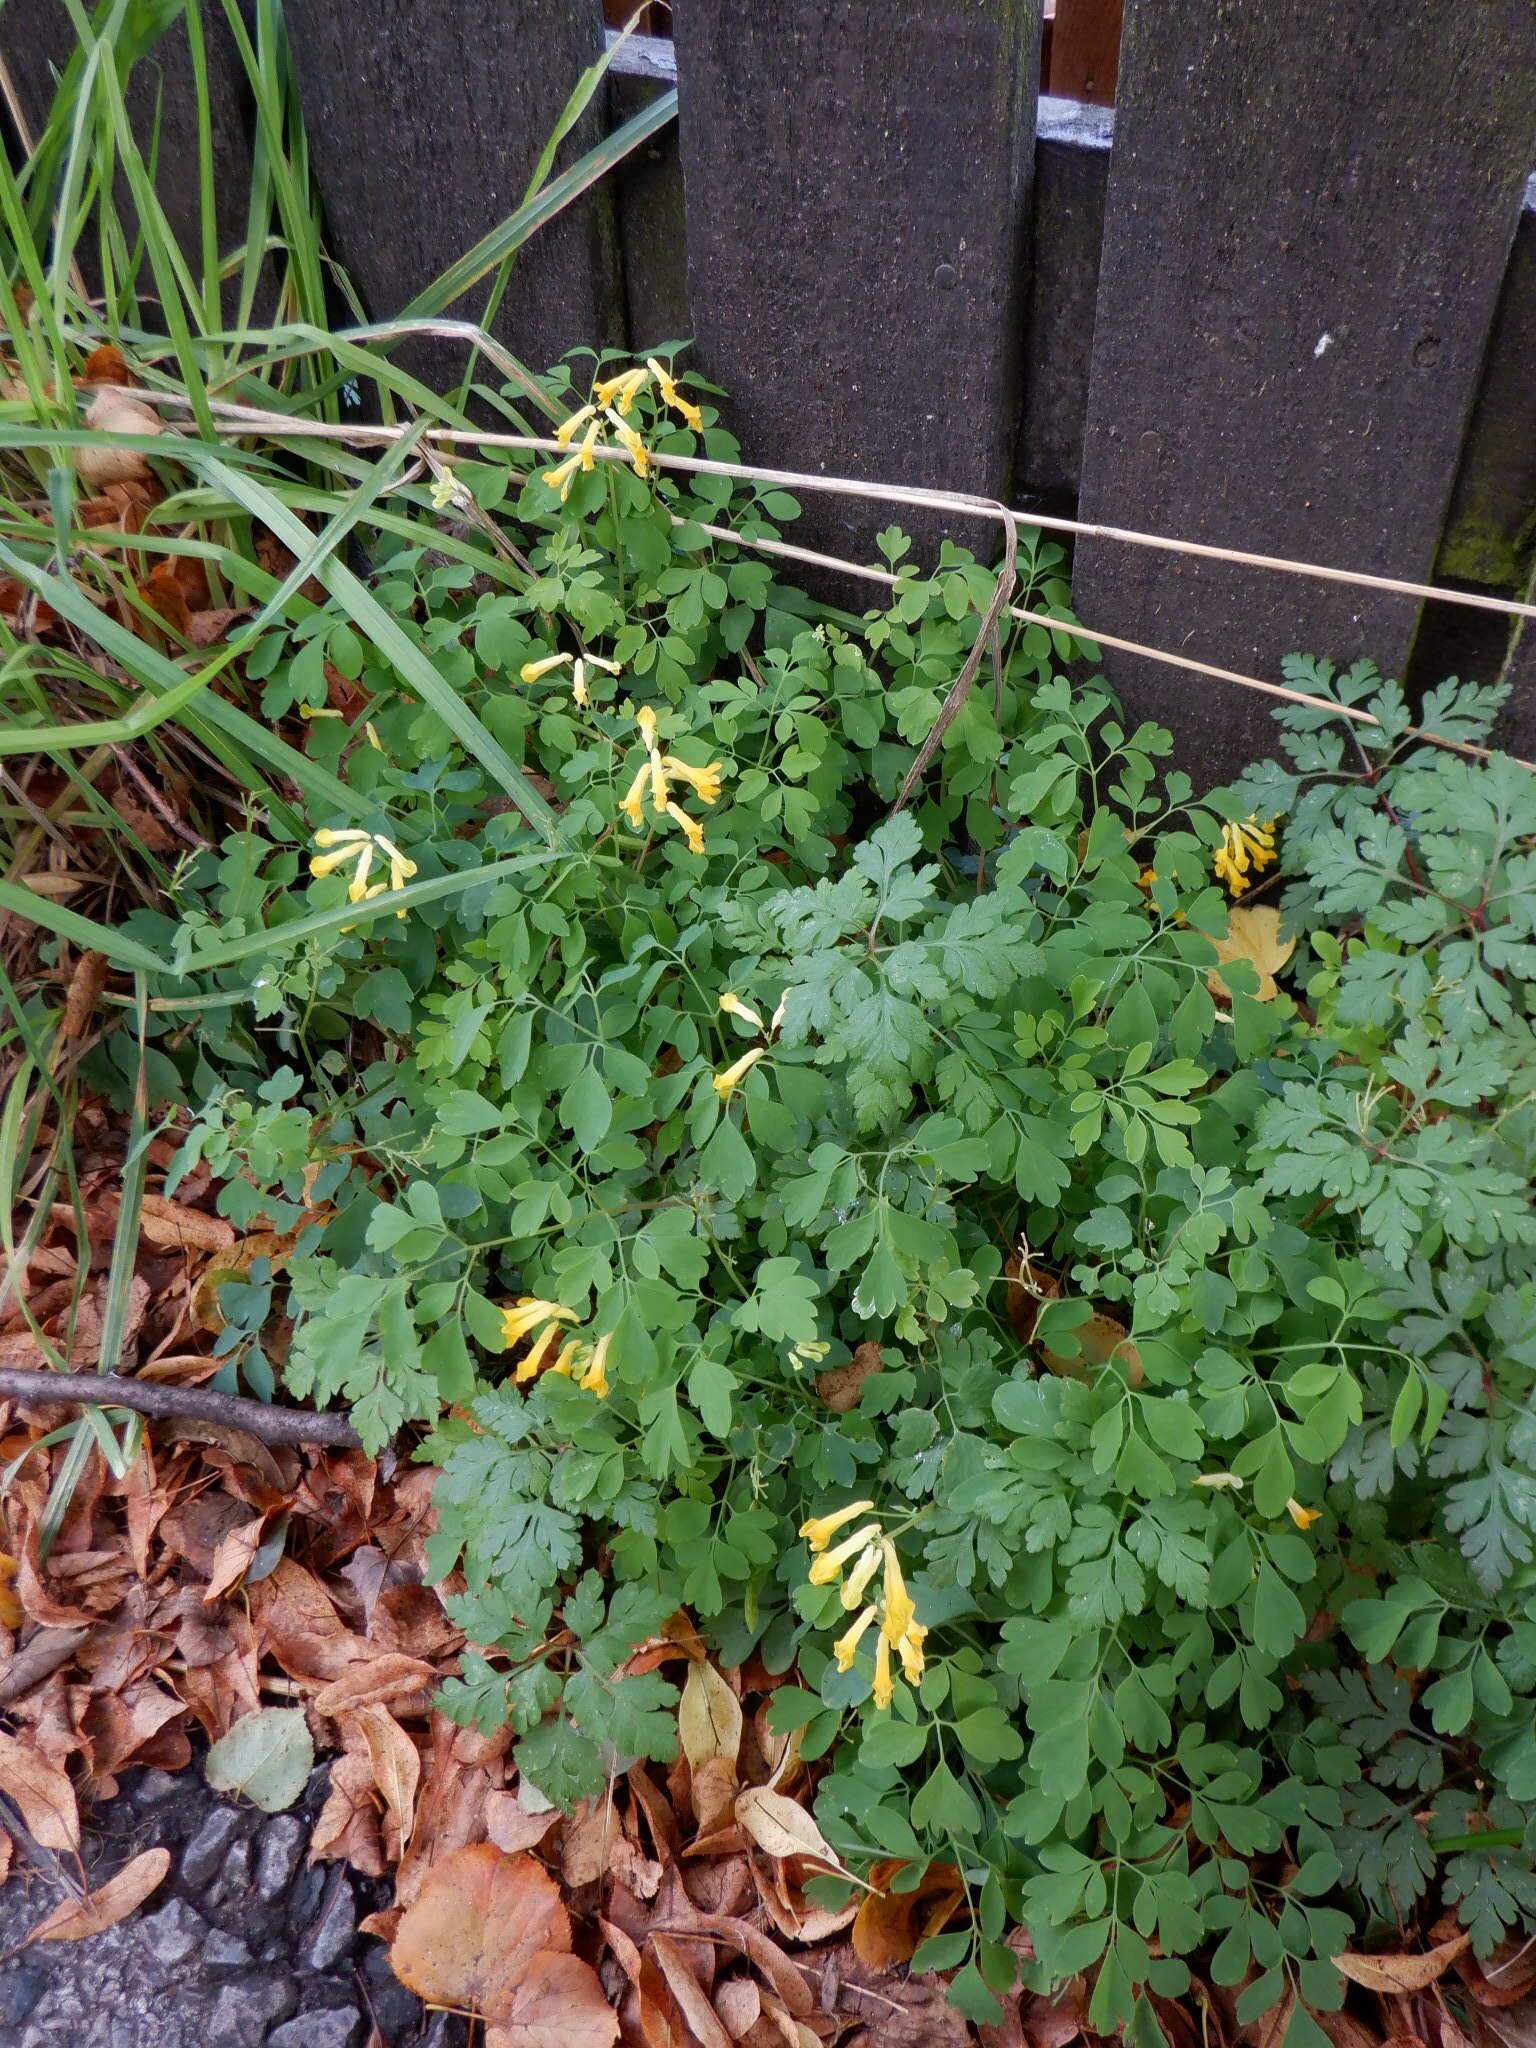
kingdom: Plantae
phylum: Tracheophyta
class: Magnoliopsida
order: Ranunculales
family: Papaveraceae
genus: Pseudofumaria
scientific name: Pseudofumaria lutea
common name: Yellow corydalis
